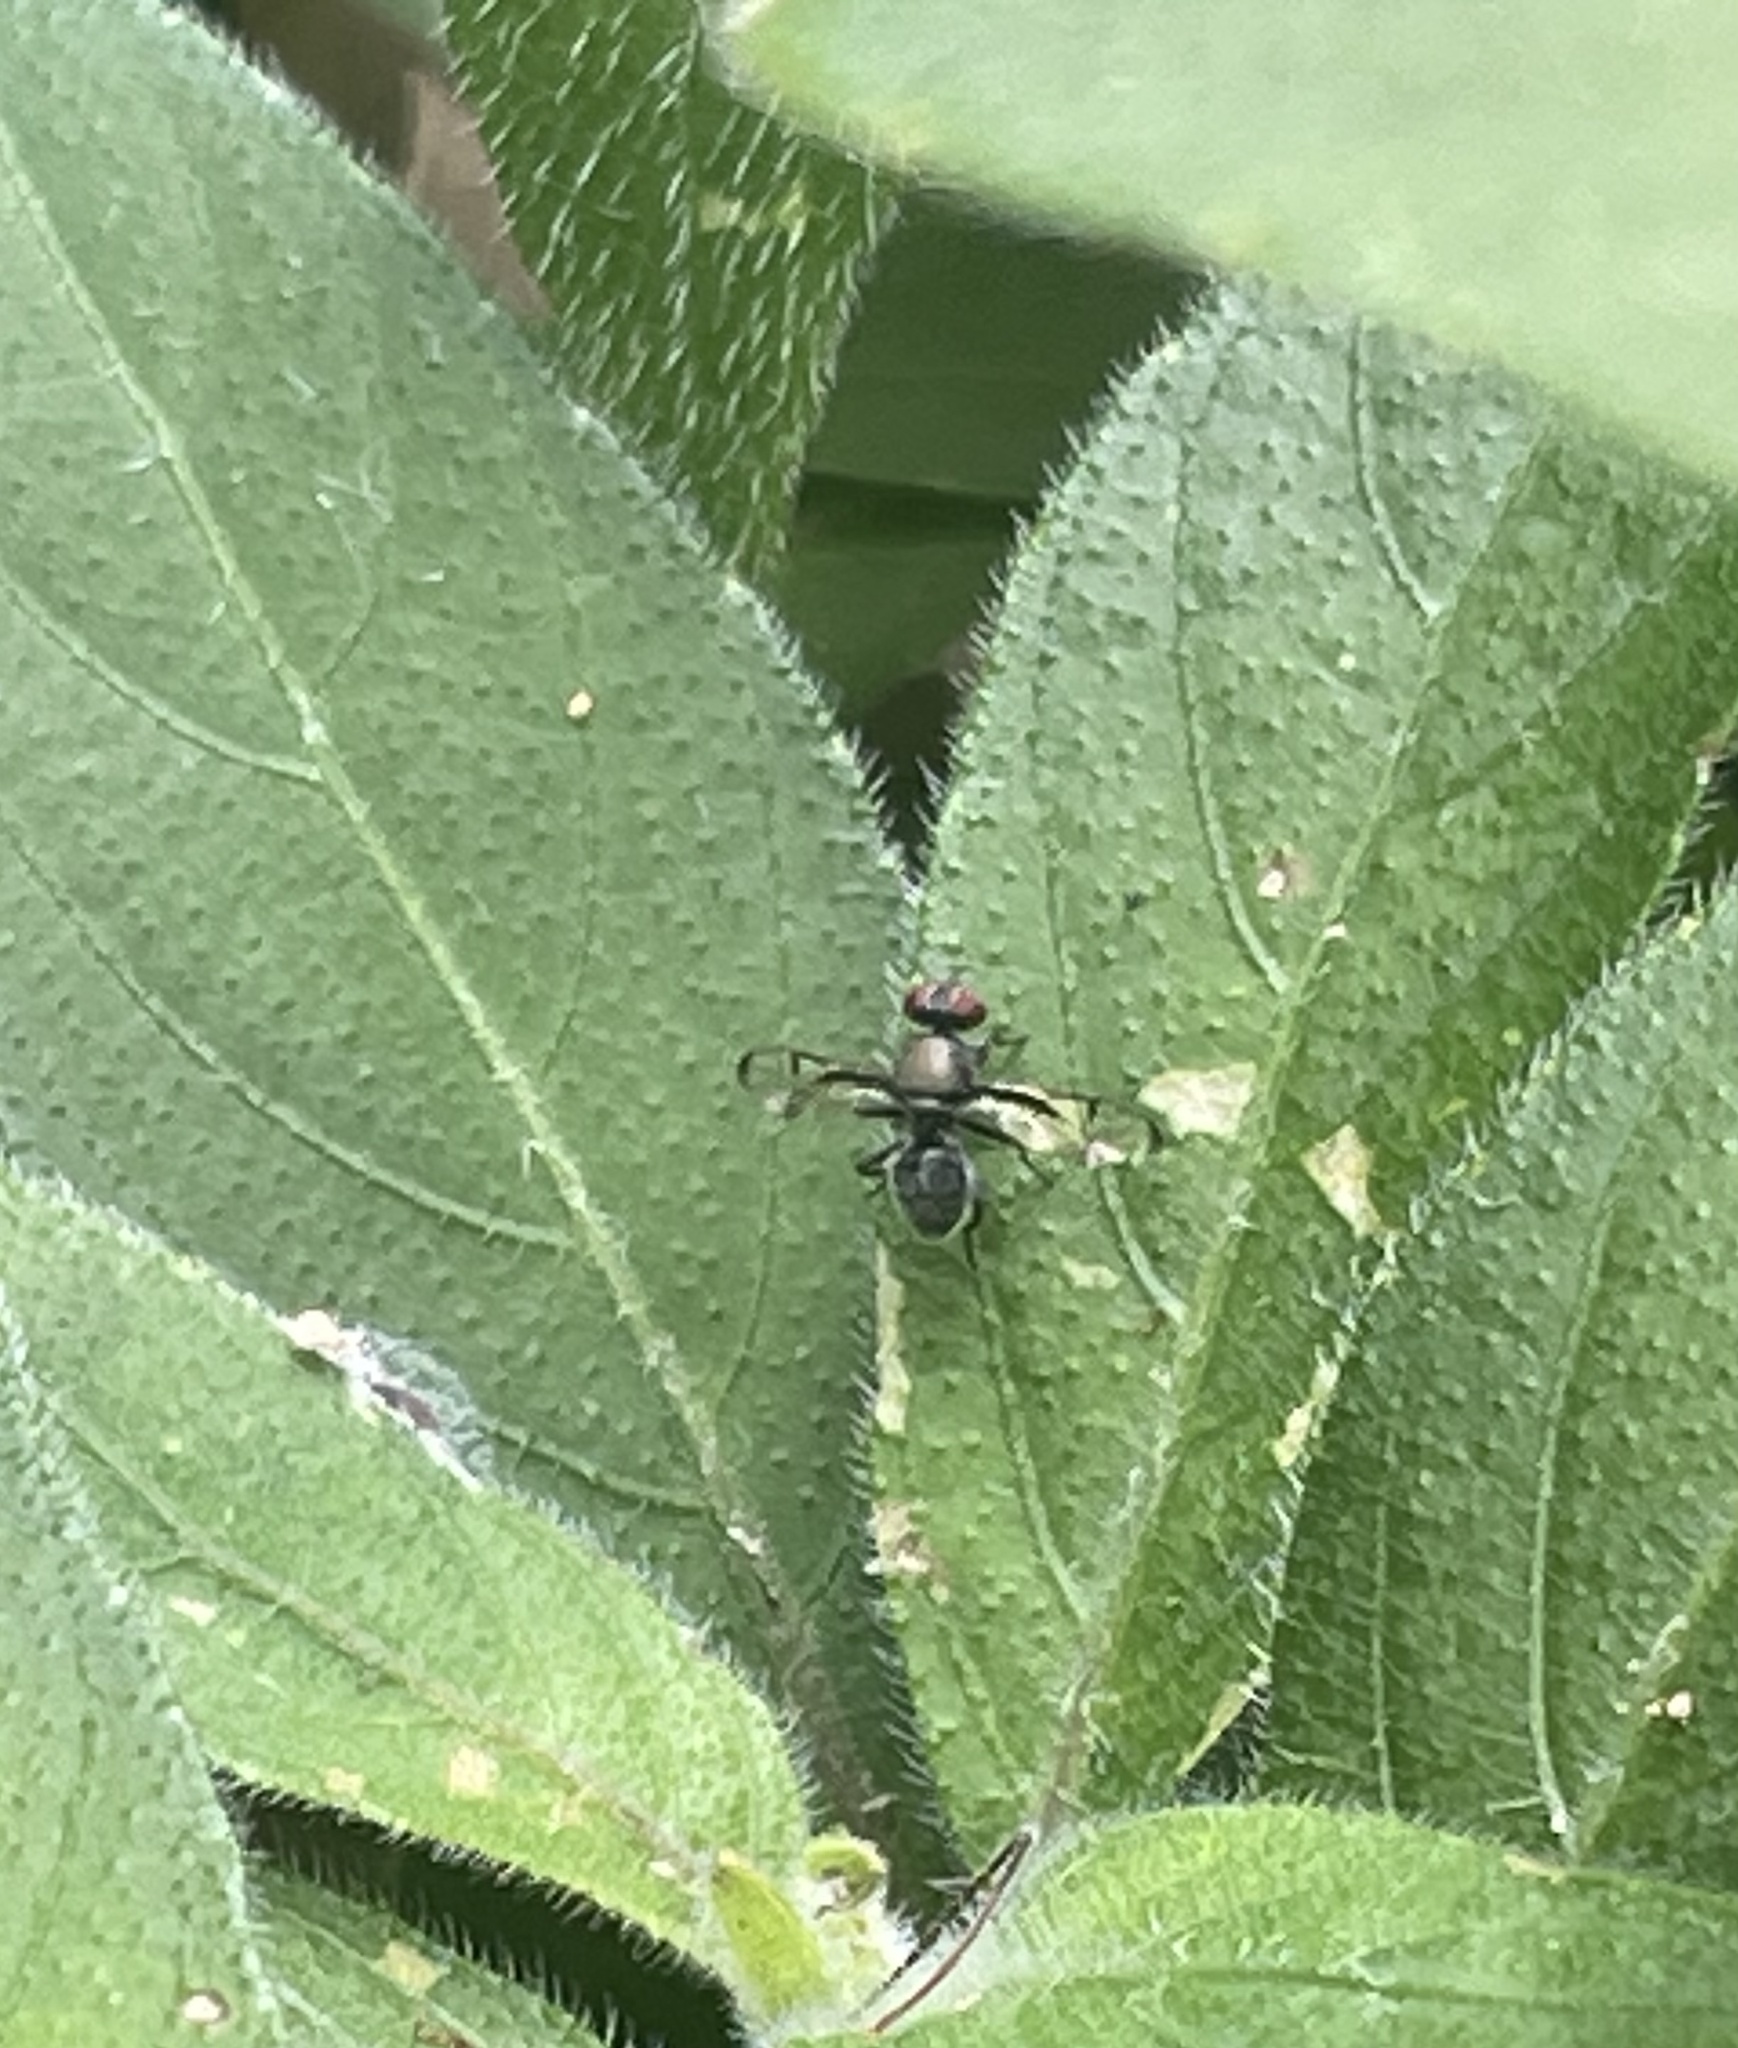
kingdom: Animalia
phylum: Arthropoda
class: Insecta
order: Diptera
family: Platystomatidae
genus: Pogonortalis
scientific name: Pogonortalis doclea
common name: Boatman fly
